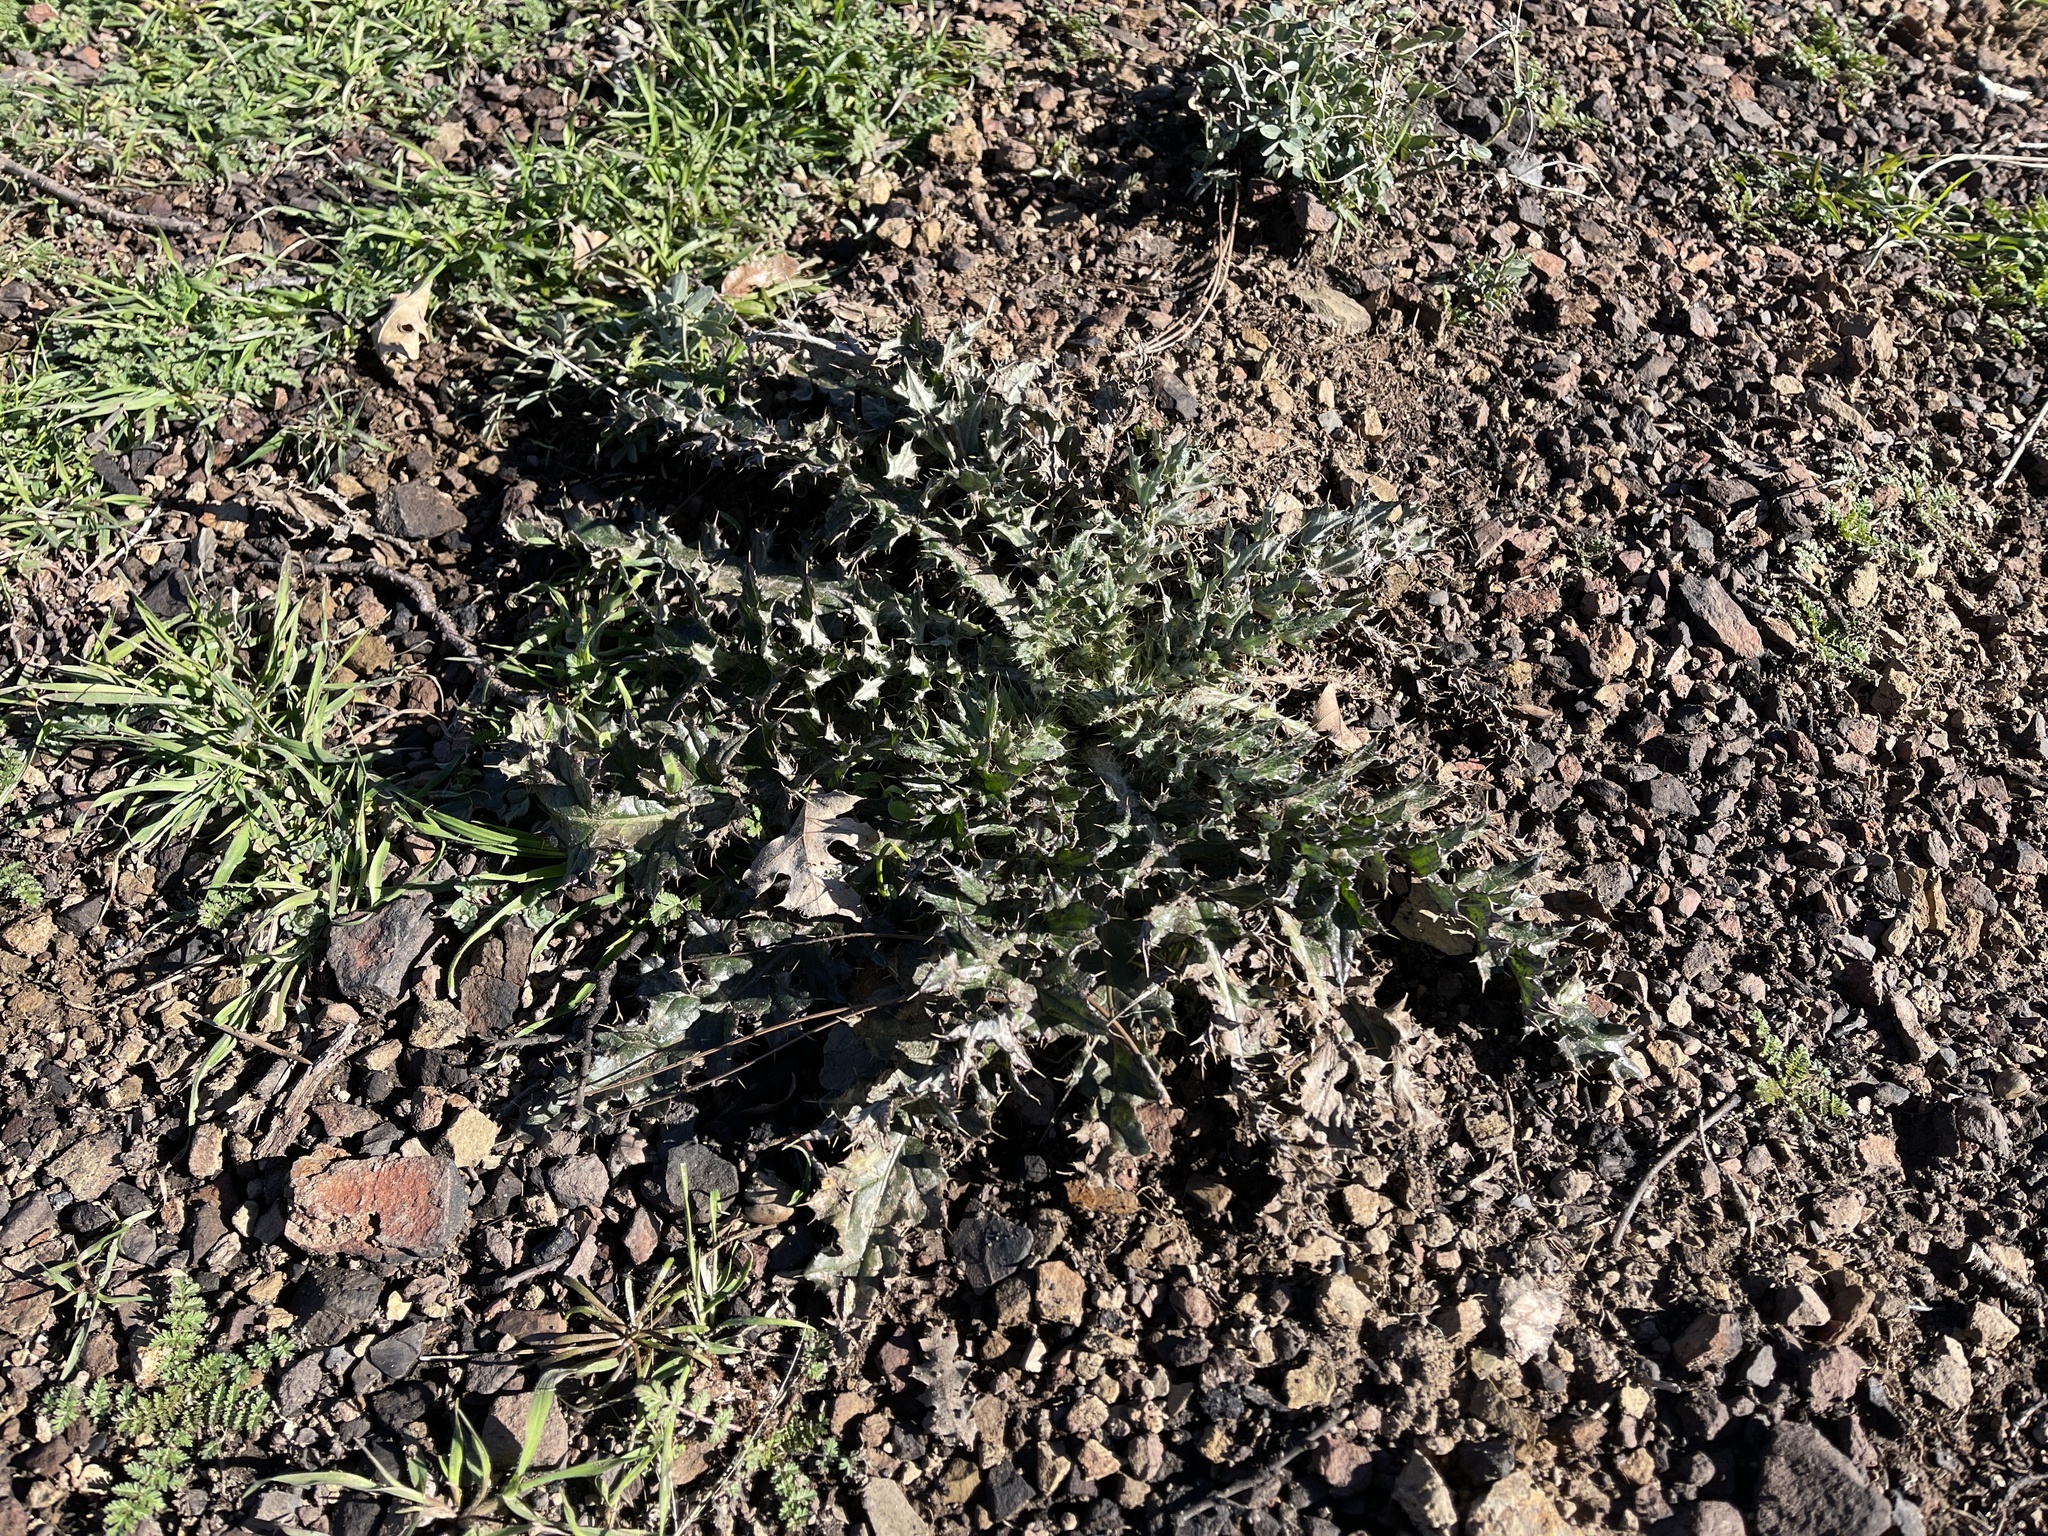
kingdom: Plantae
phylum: Tracheophyta
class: Magnoliopsida
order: Asterales
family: Asteraceae
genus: Cirsium
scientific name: Cirsium occidentale
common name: Western thistle
